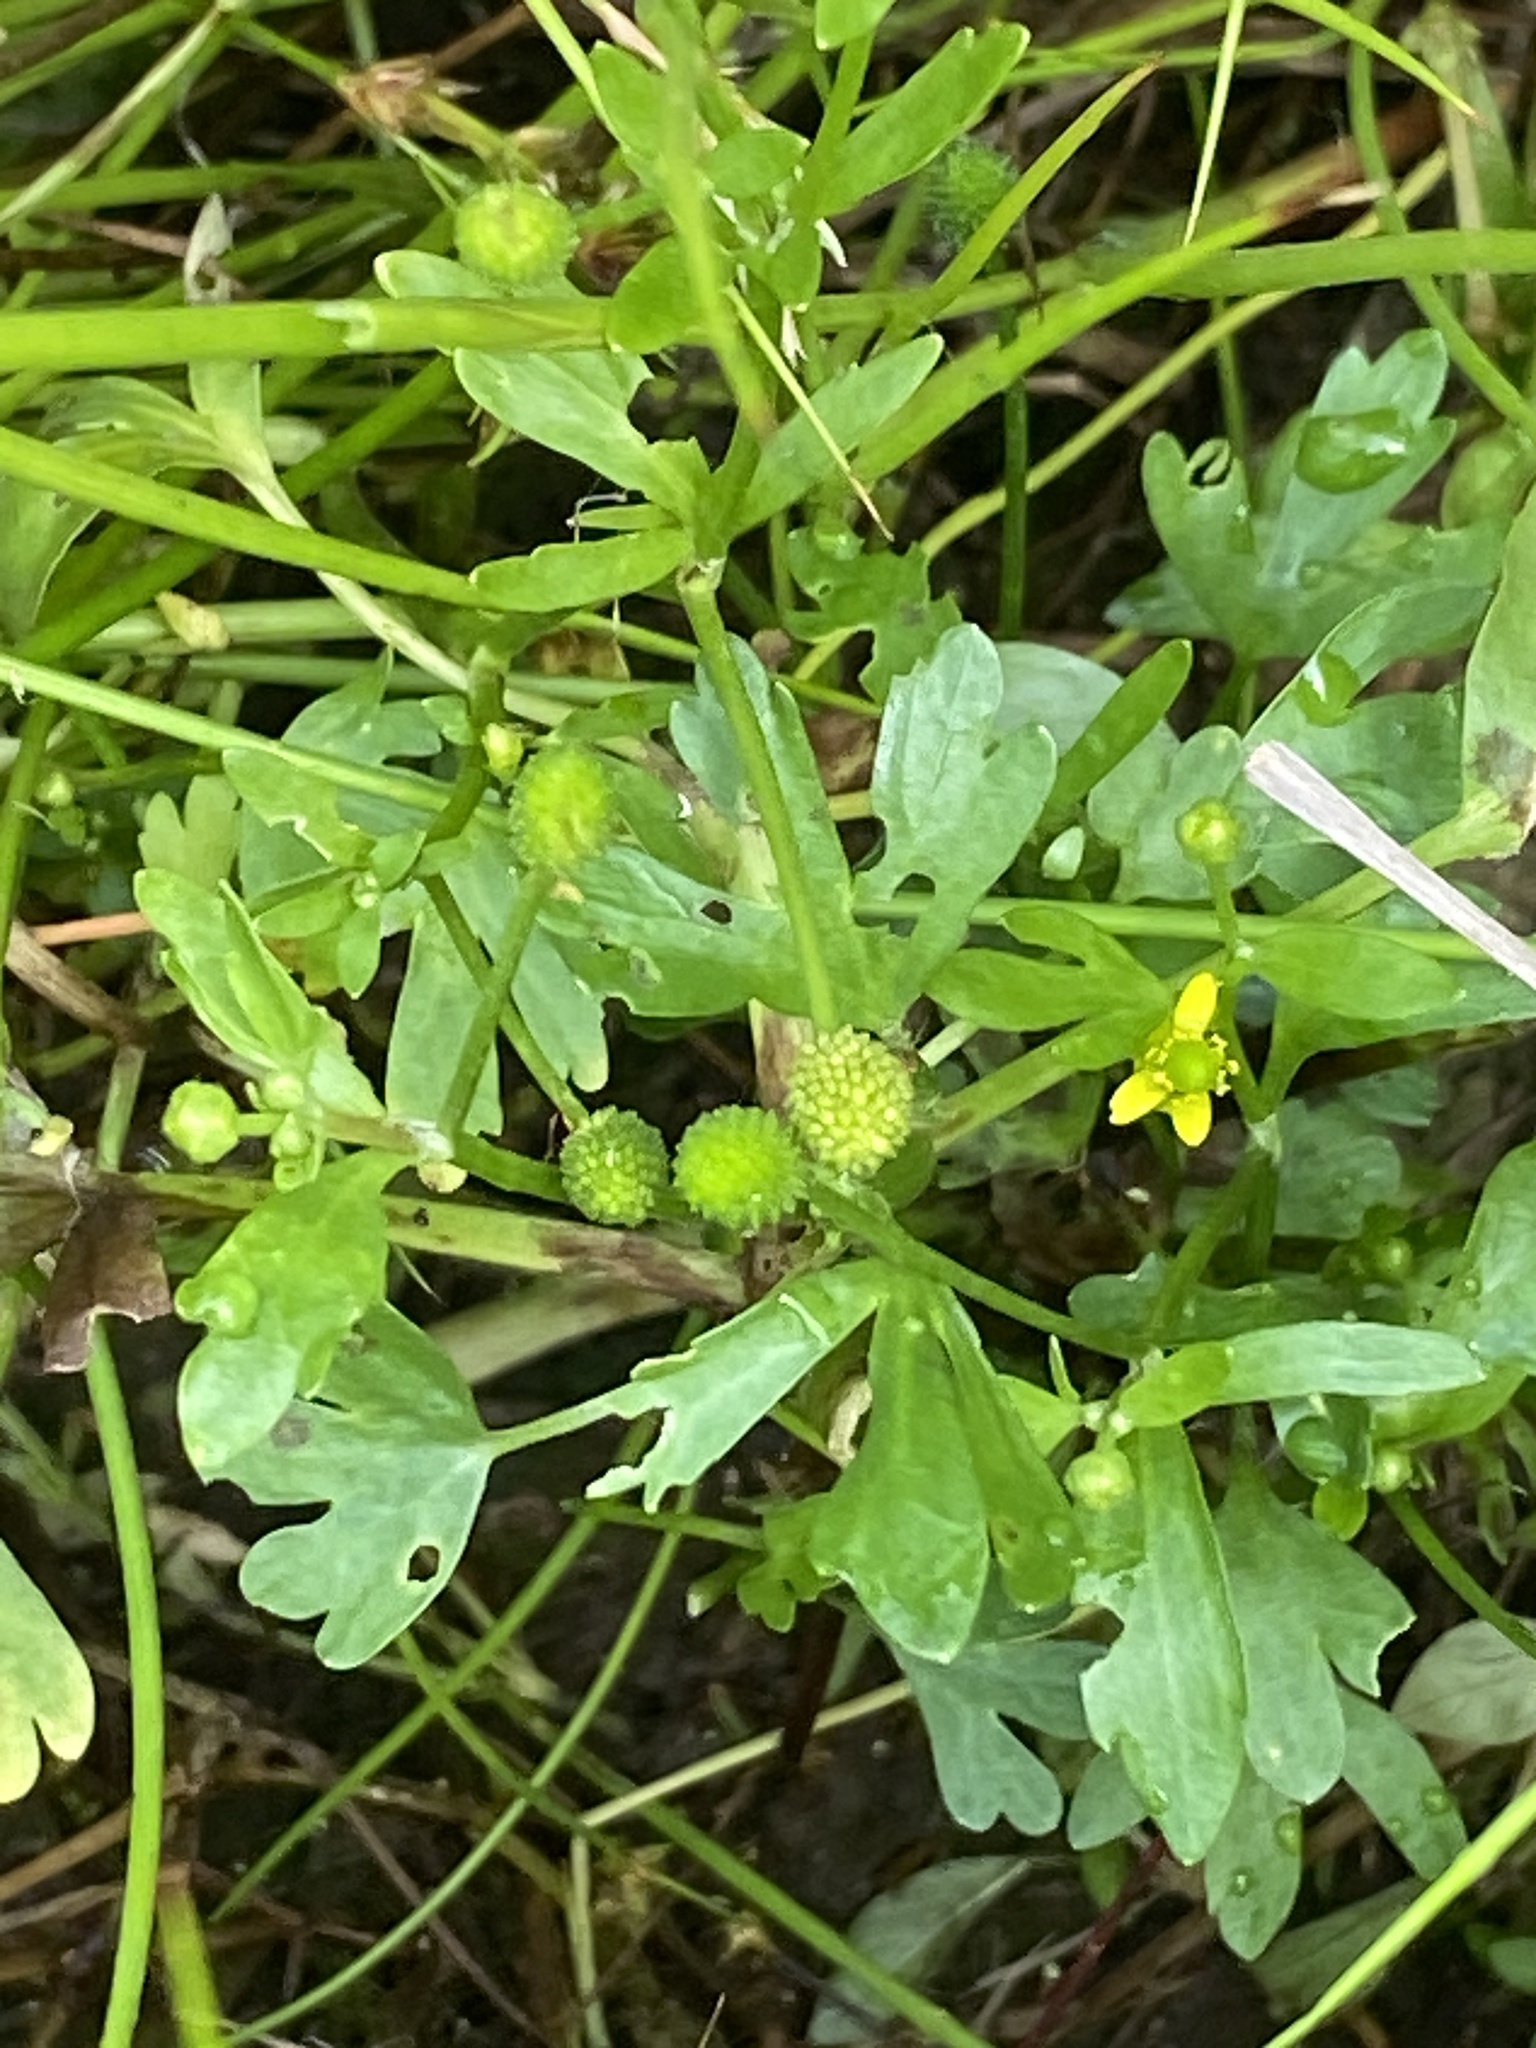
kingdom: Plantae
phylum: Tracheophyta
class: Magnoliopsida
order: Ranunculales
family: Ranunculaceae
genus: Ranunculus
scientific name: Ranunculus sceleratus
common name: Celery-leaved buttercup
